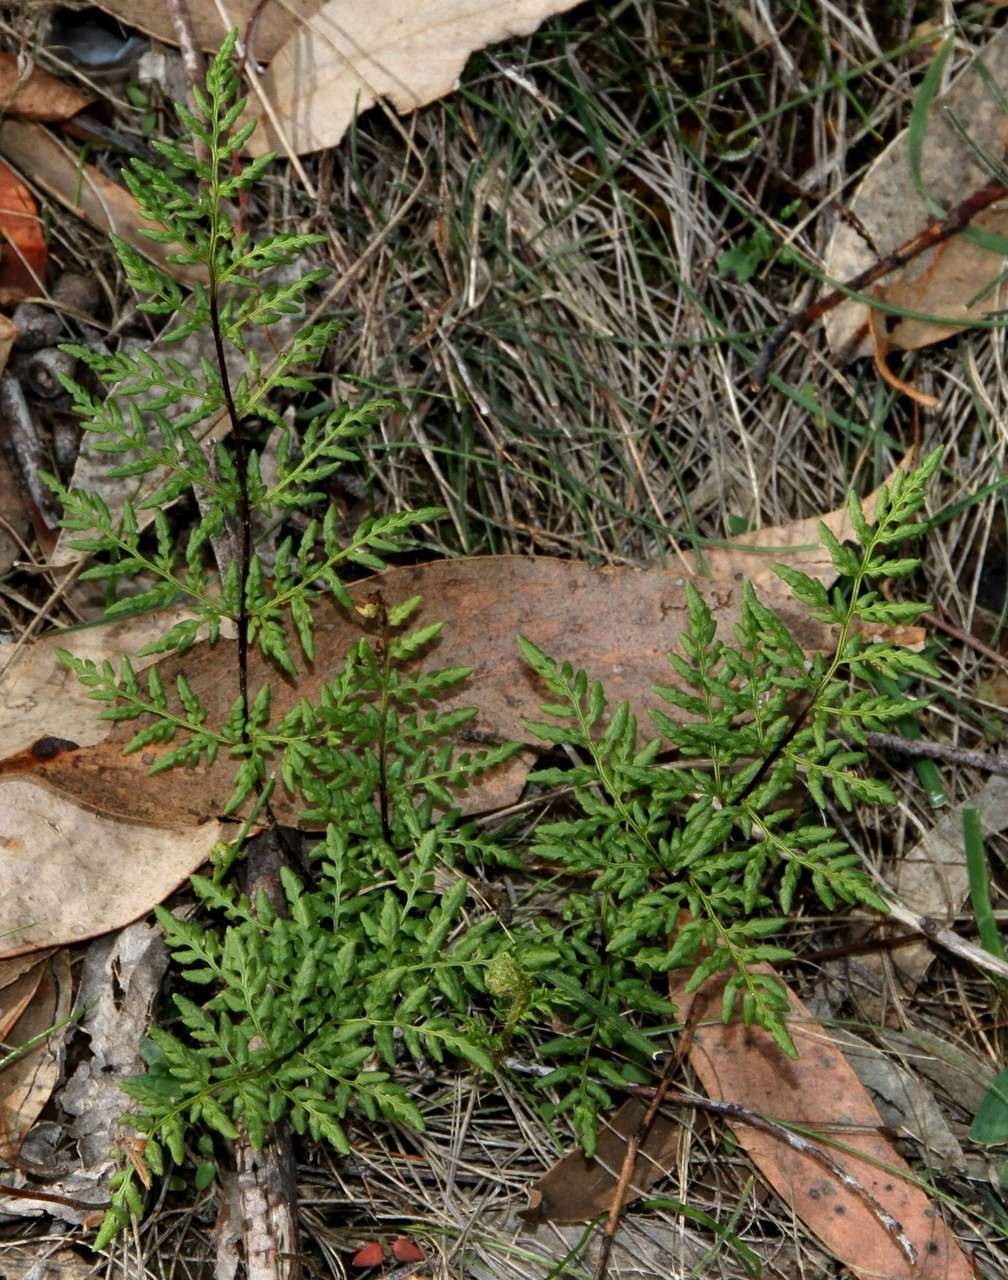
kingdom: Plantae
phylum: Tracheophyta
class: Polypodiopsida
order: Polypodiales
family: Pteridaceae
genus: Cheilanthes
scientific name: Cheilanthes austrotenuifolia
